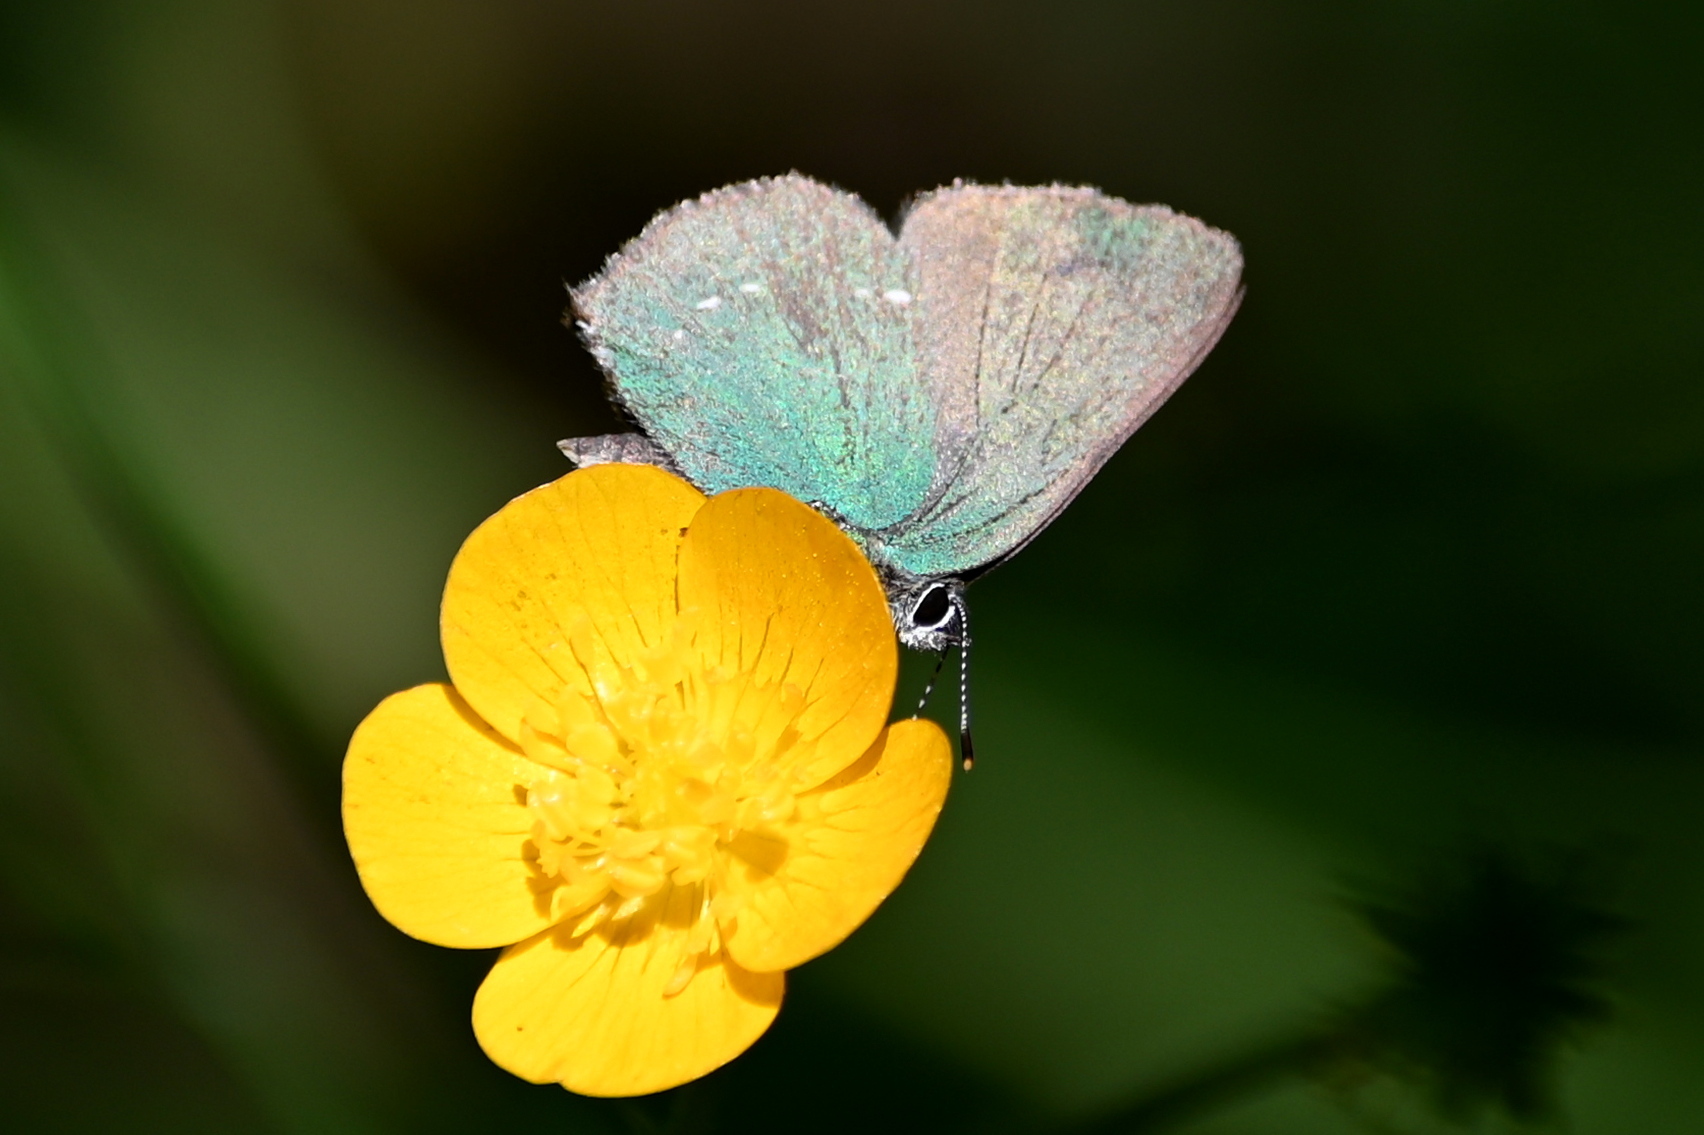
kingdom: Animalia
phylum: Arthropoda
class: Insecta
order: Lepidoptera
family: Lycaenidae
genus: Callophrys
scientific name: Callophrys rubi
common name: Green hairstreak
